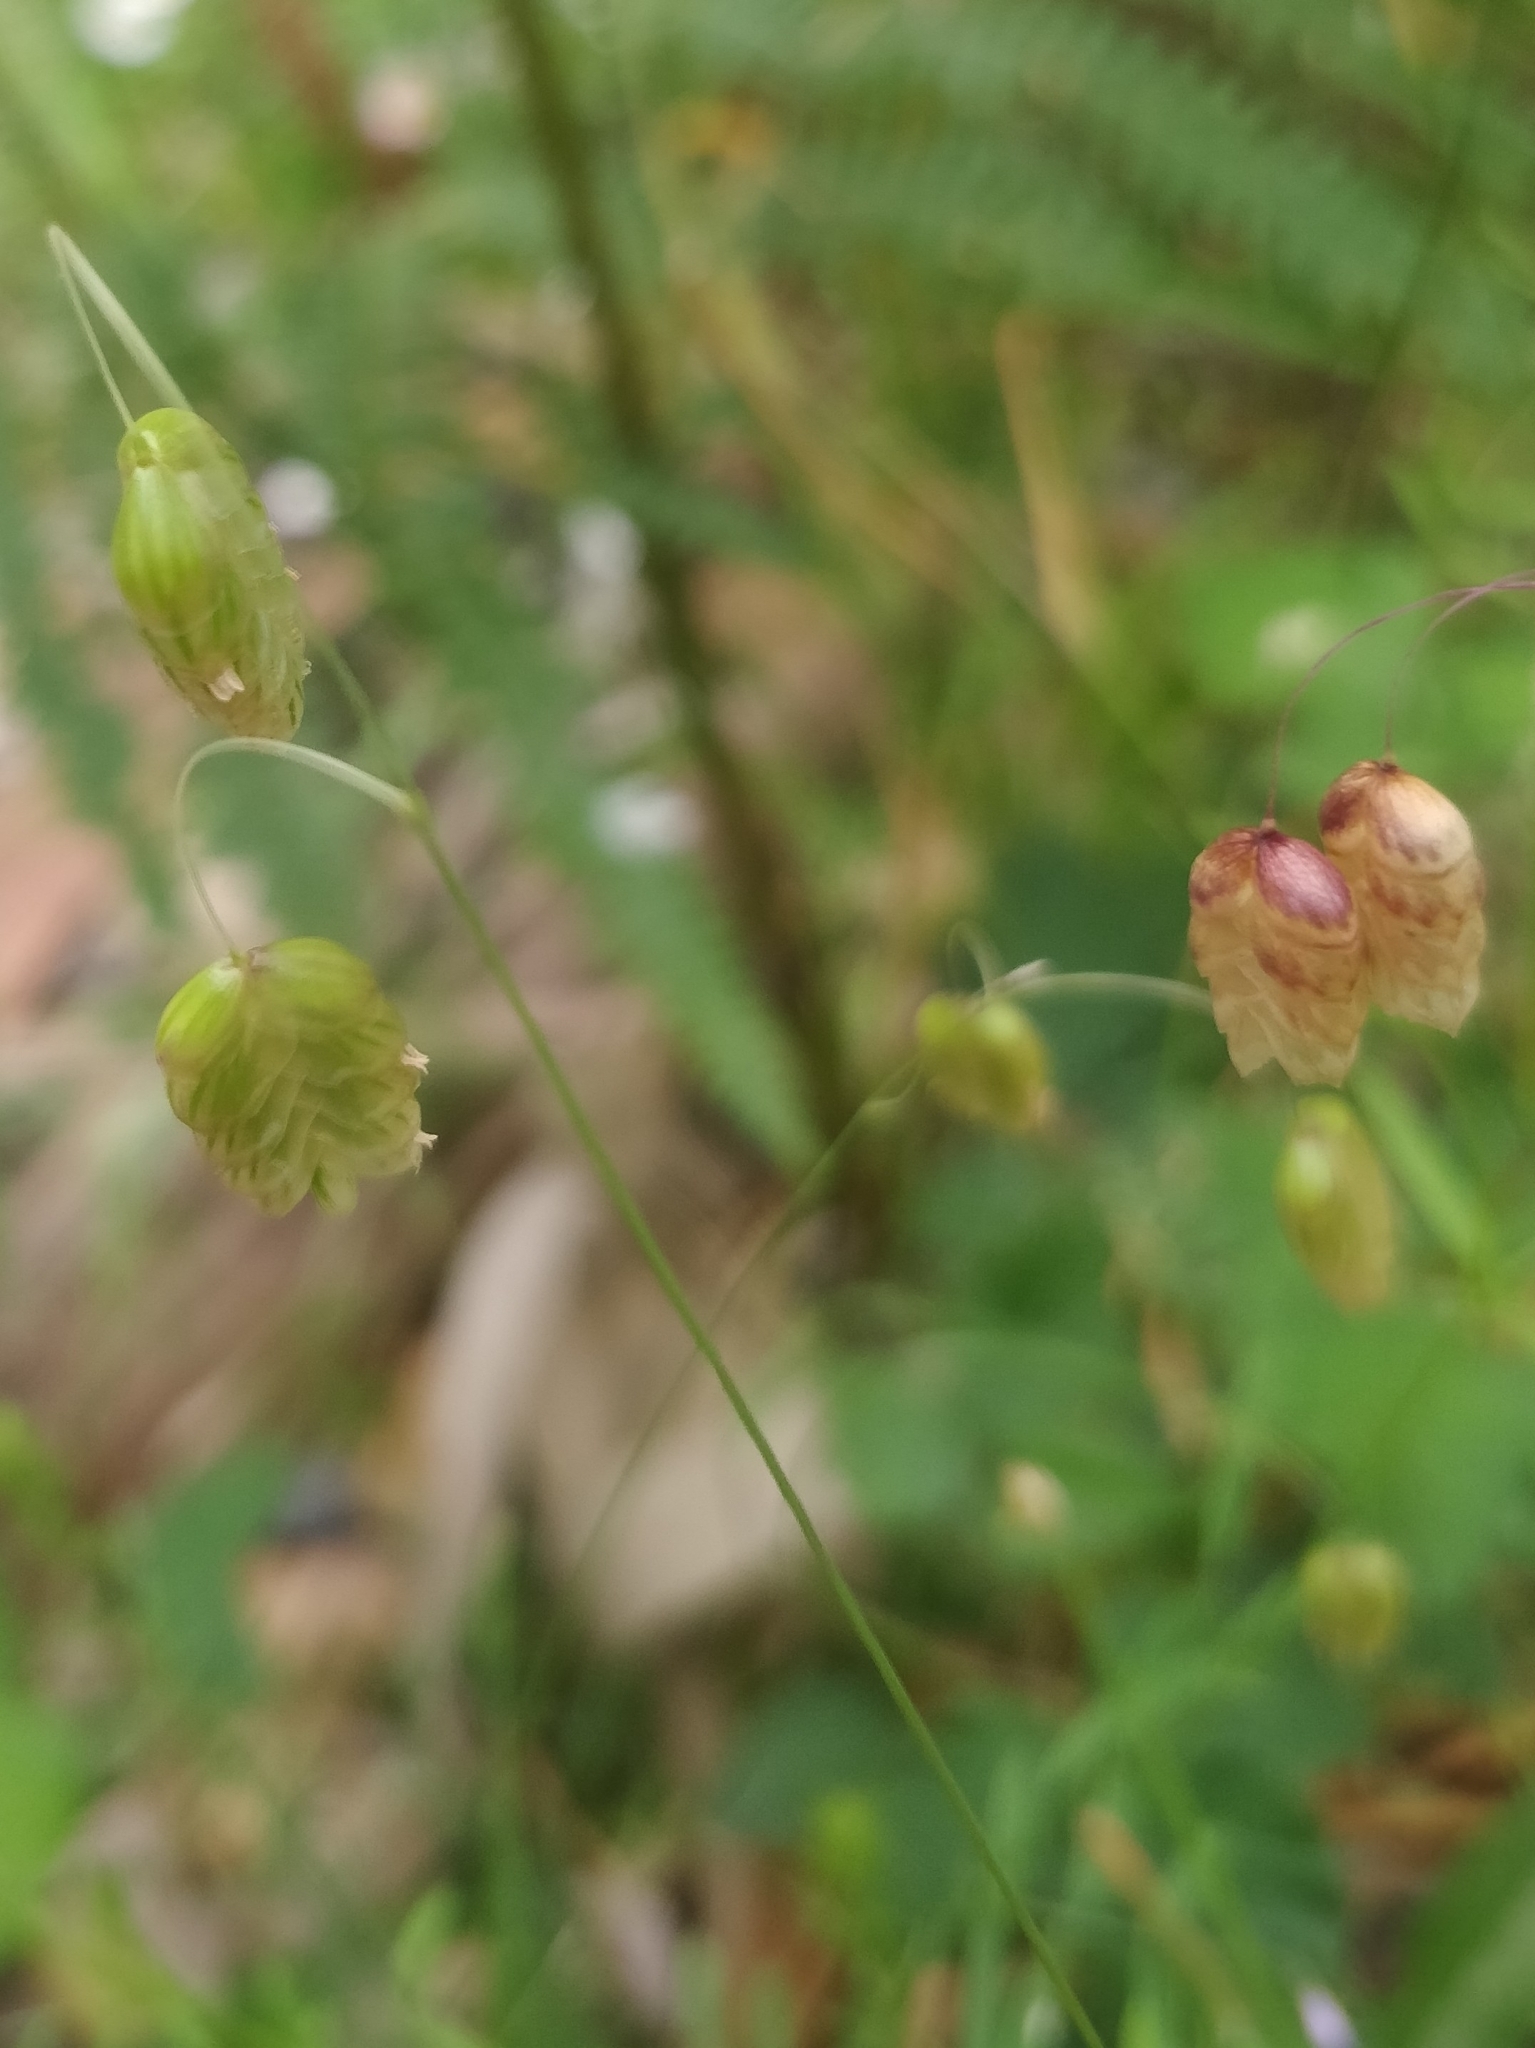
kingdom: Plantae
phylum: Tracheophyta
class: Liliopsida
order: Poales
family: Poaceae
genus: Briza
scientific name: Briza maxima
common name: Big quakinggrass
